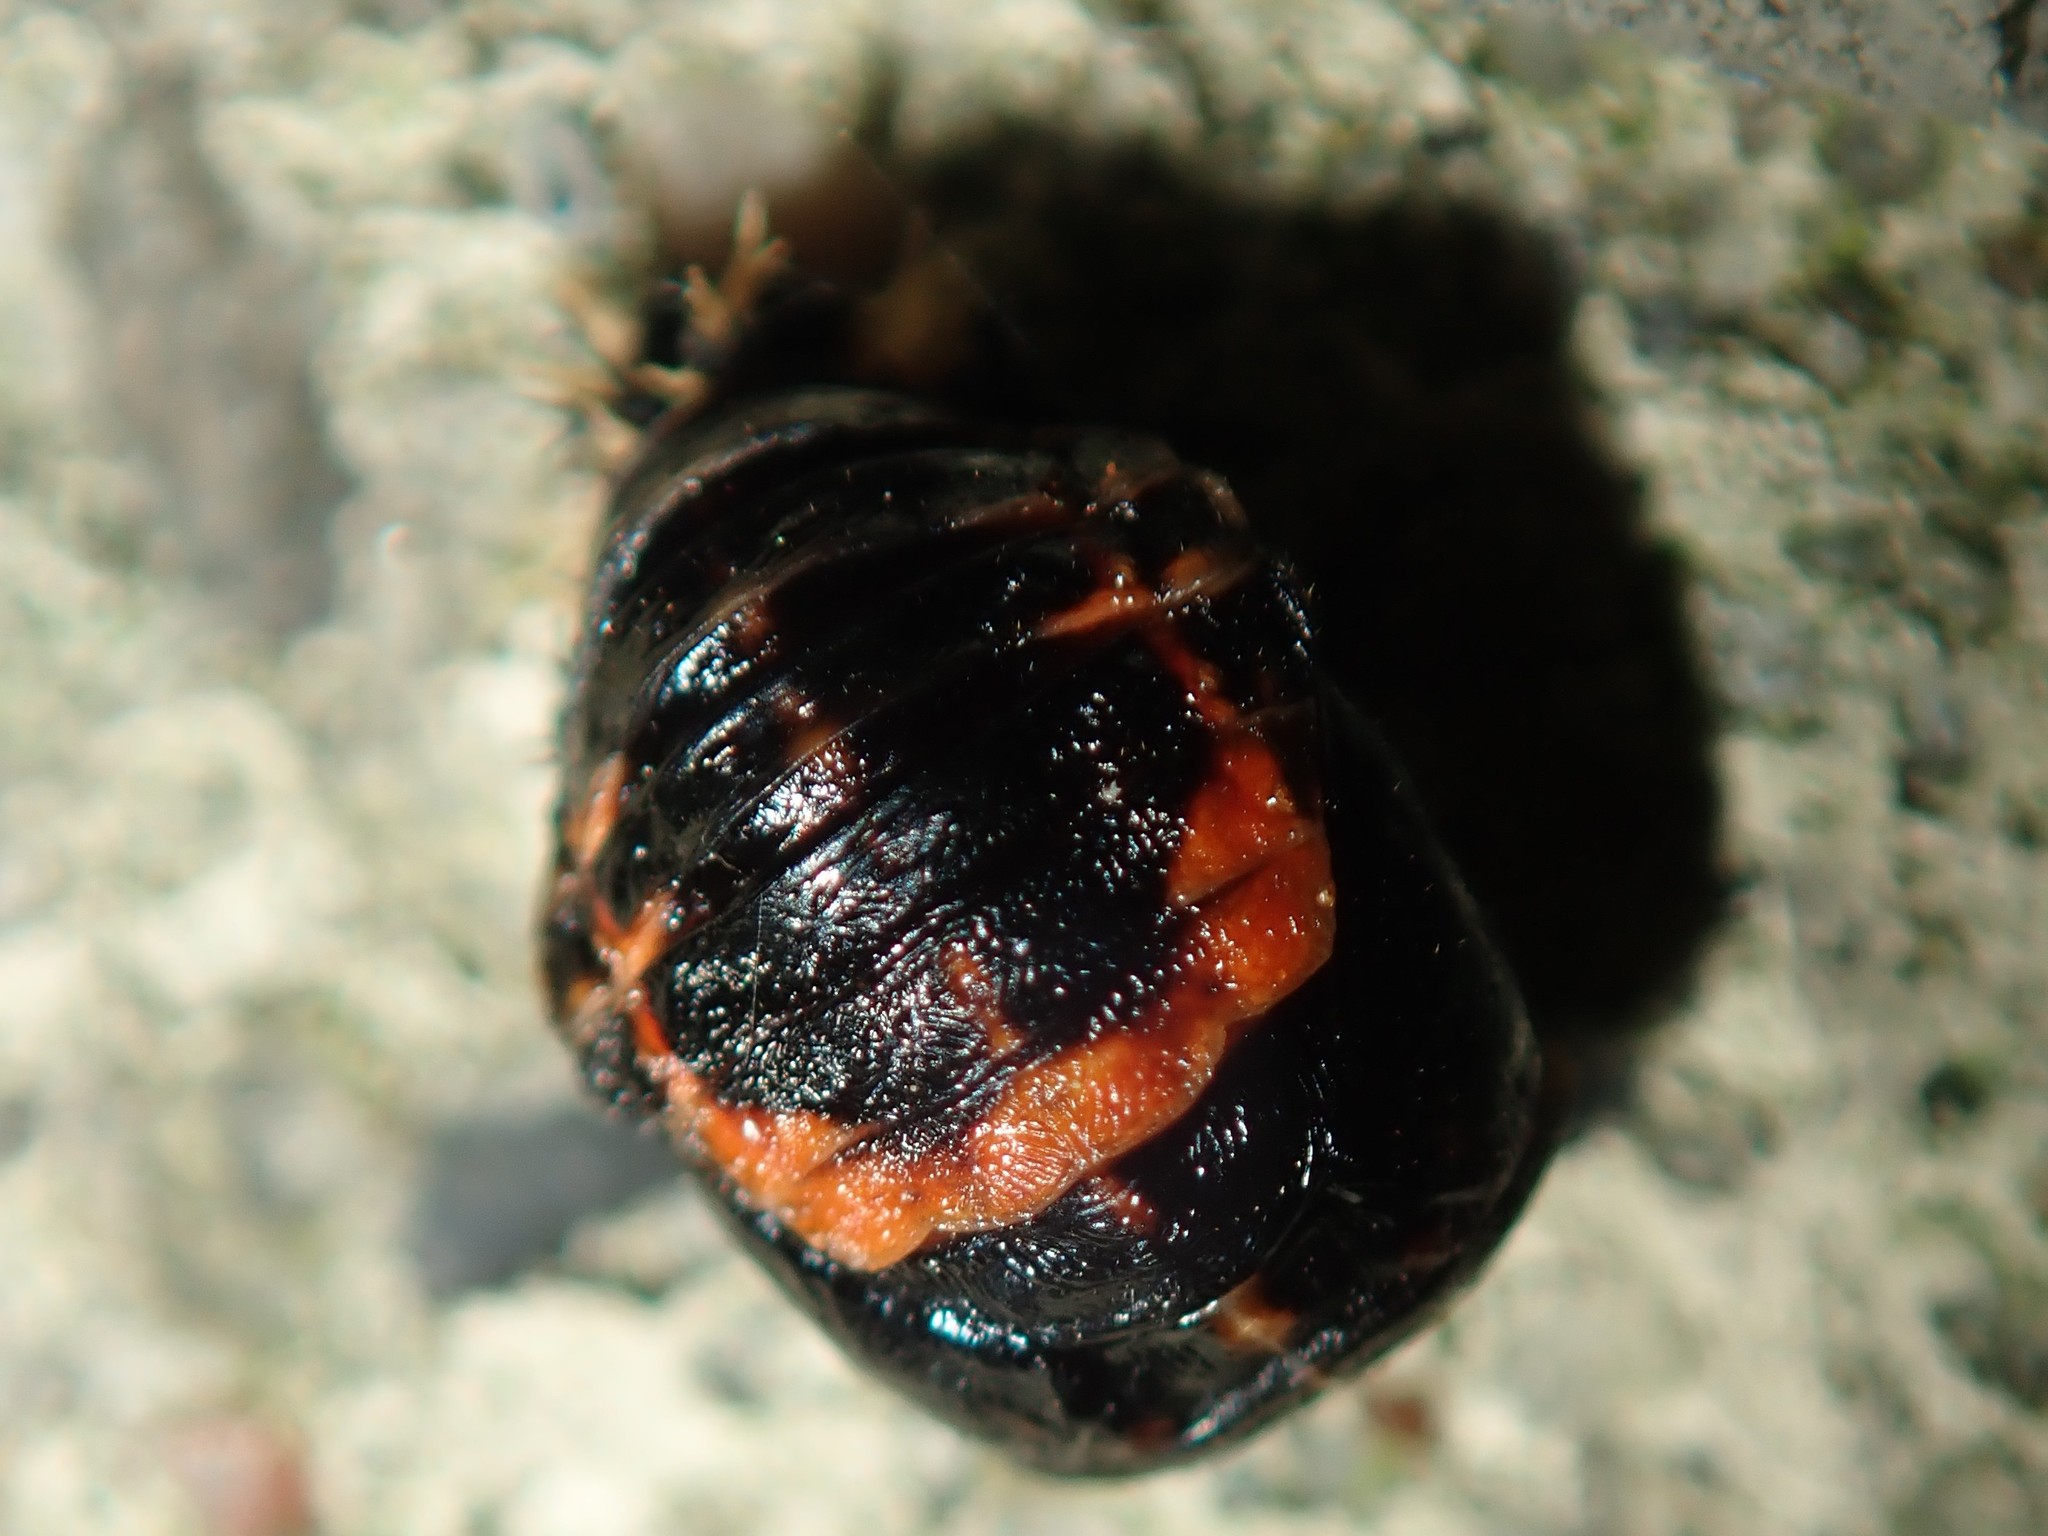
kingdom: Animalia
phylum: Arthropoda
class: Insecta
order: Coleoptera
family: Coccinellidae
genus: Harmonia
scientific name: Harmonia axyridis
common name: Harlequin ladybird
